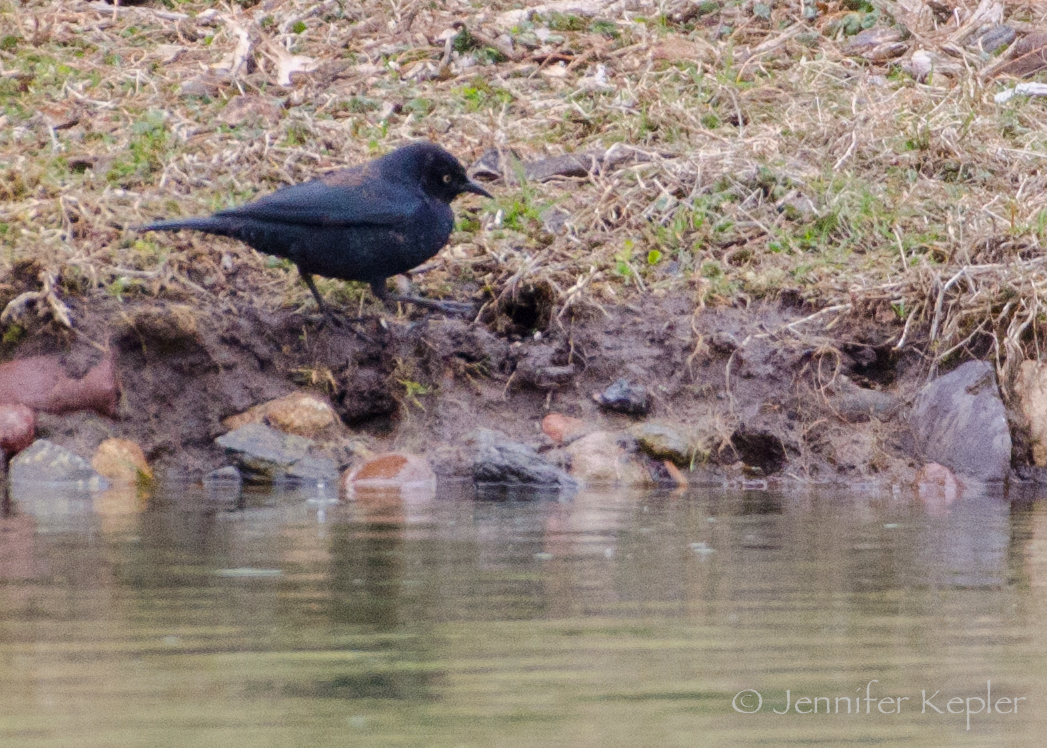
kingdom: Animalia
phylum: Chordata
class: Aves
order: Passeriformes
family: Icteridae
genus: Euphagus
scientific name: Euphagus carolinus
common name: Rusty blackbird
